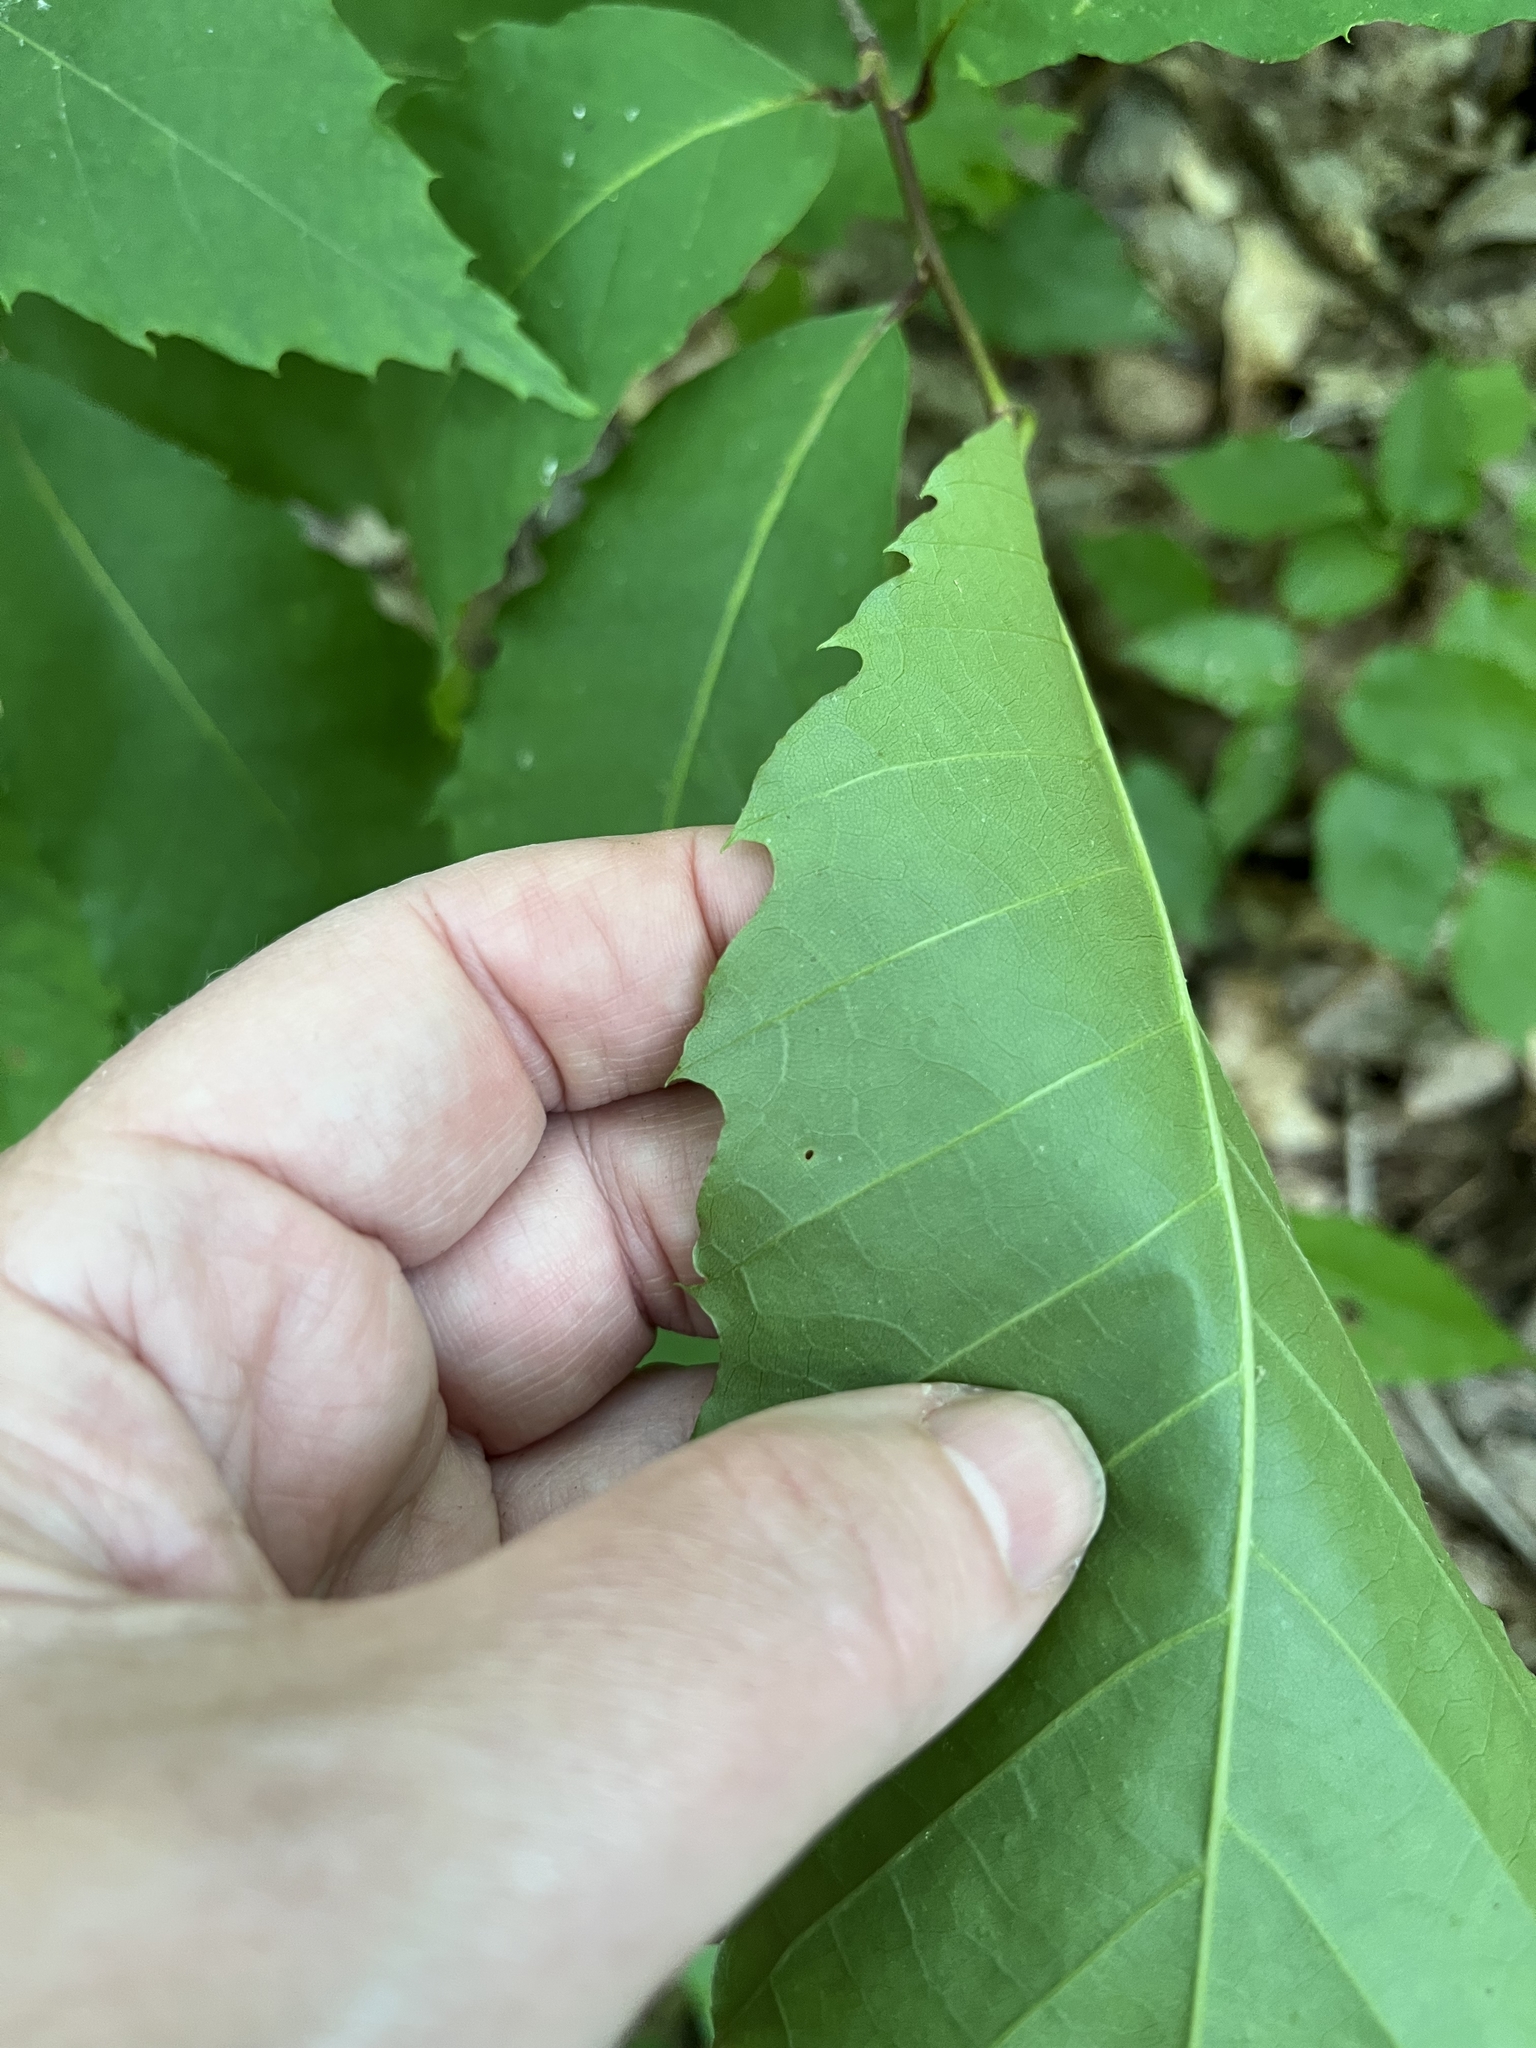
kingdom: Plantae
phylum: Tracheophyta
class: Magnoliopsida
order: Fagales
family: Fagaceae
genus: Castanea
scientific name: Castanea dentata
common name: American chestnut
